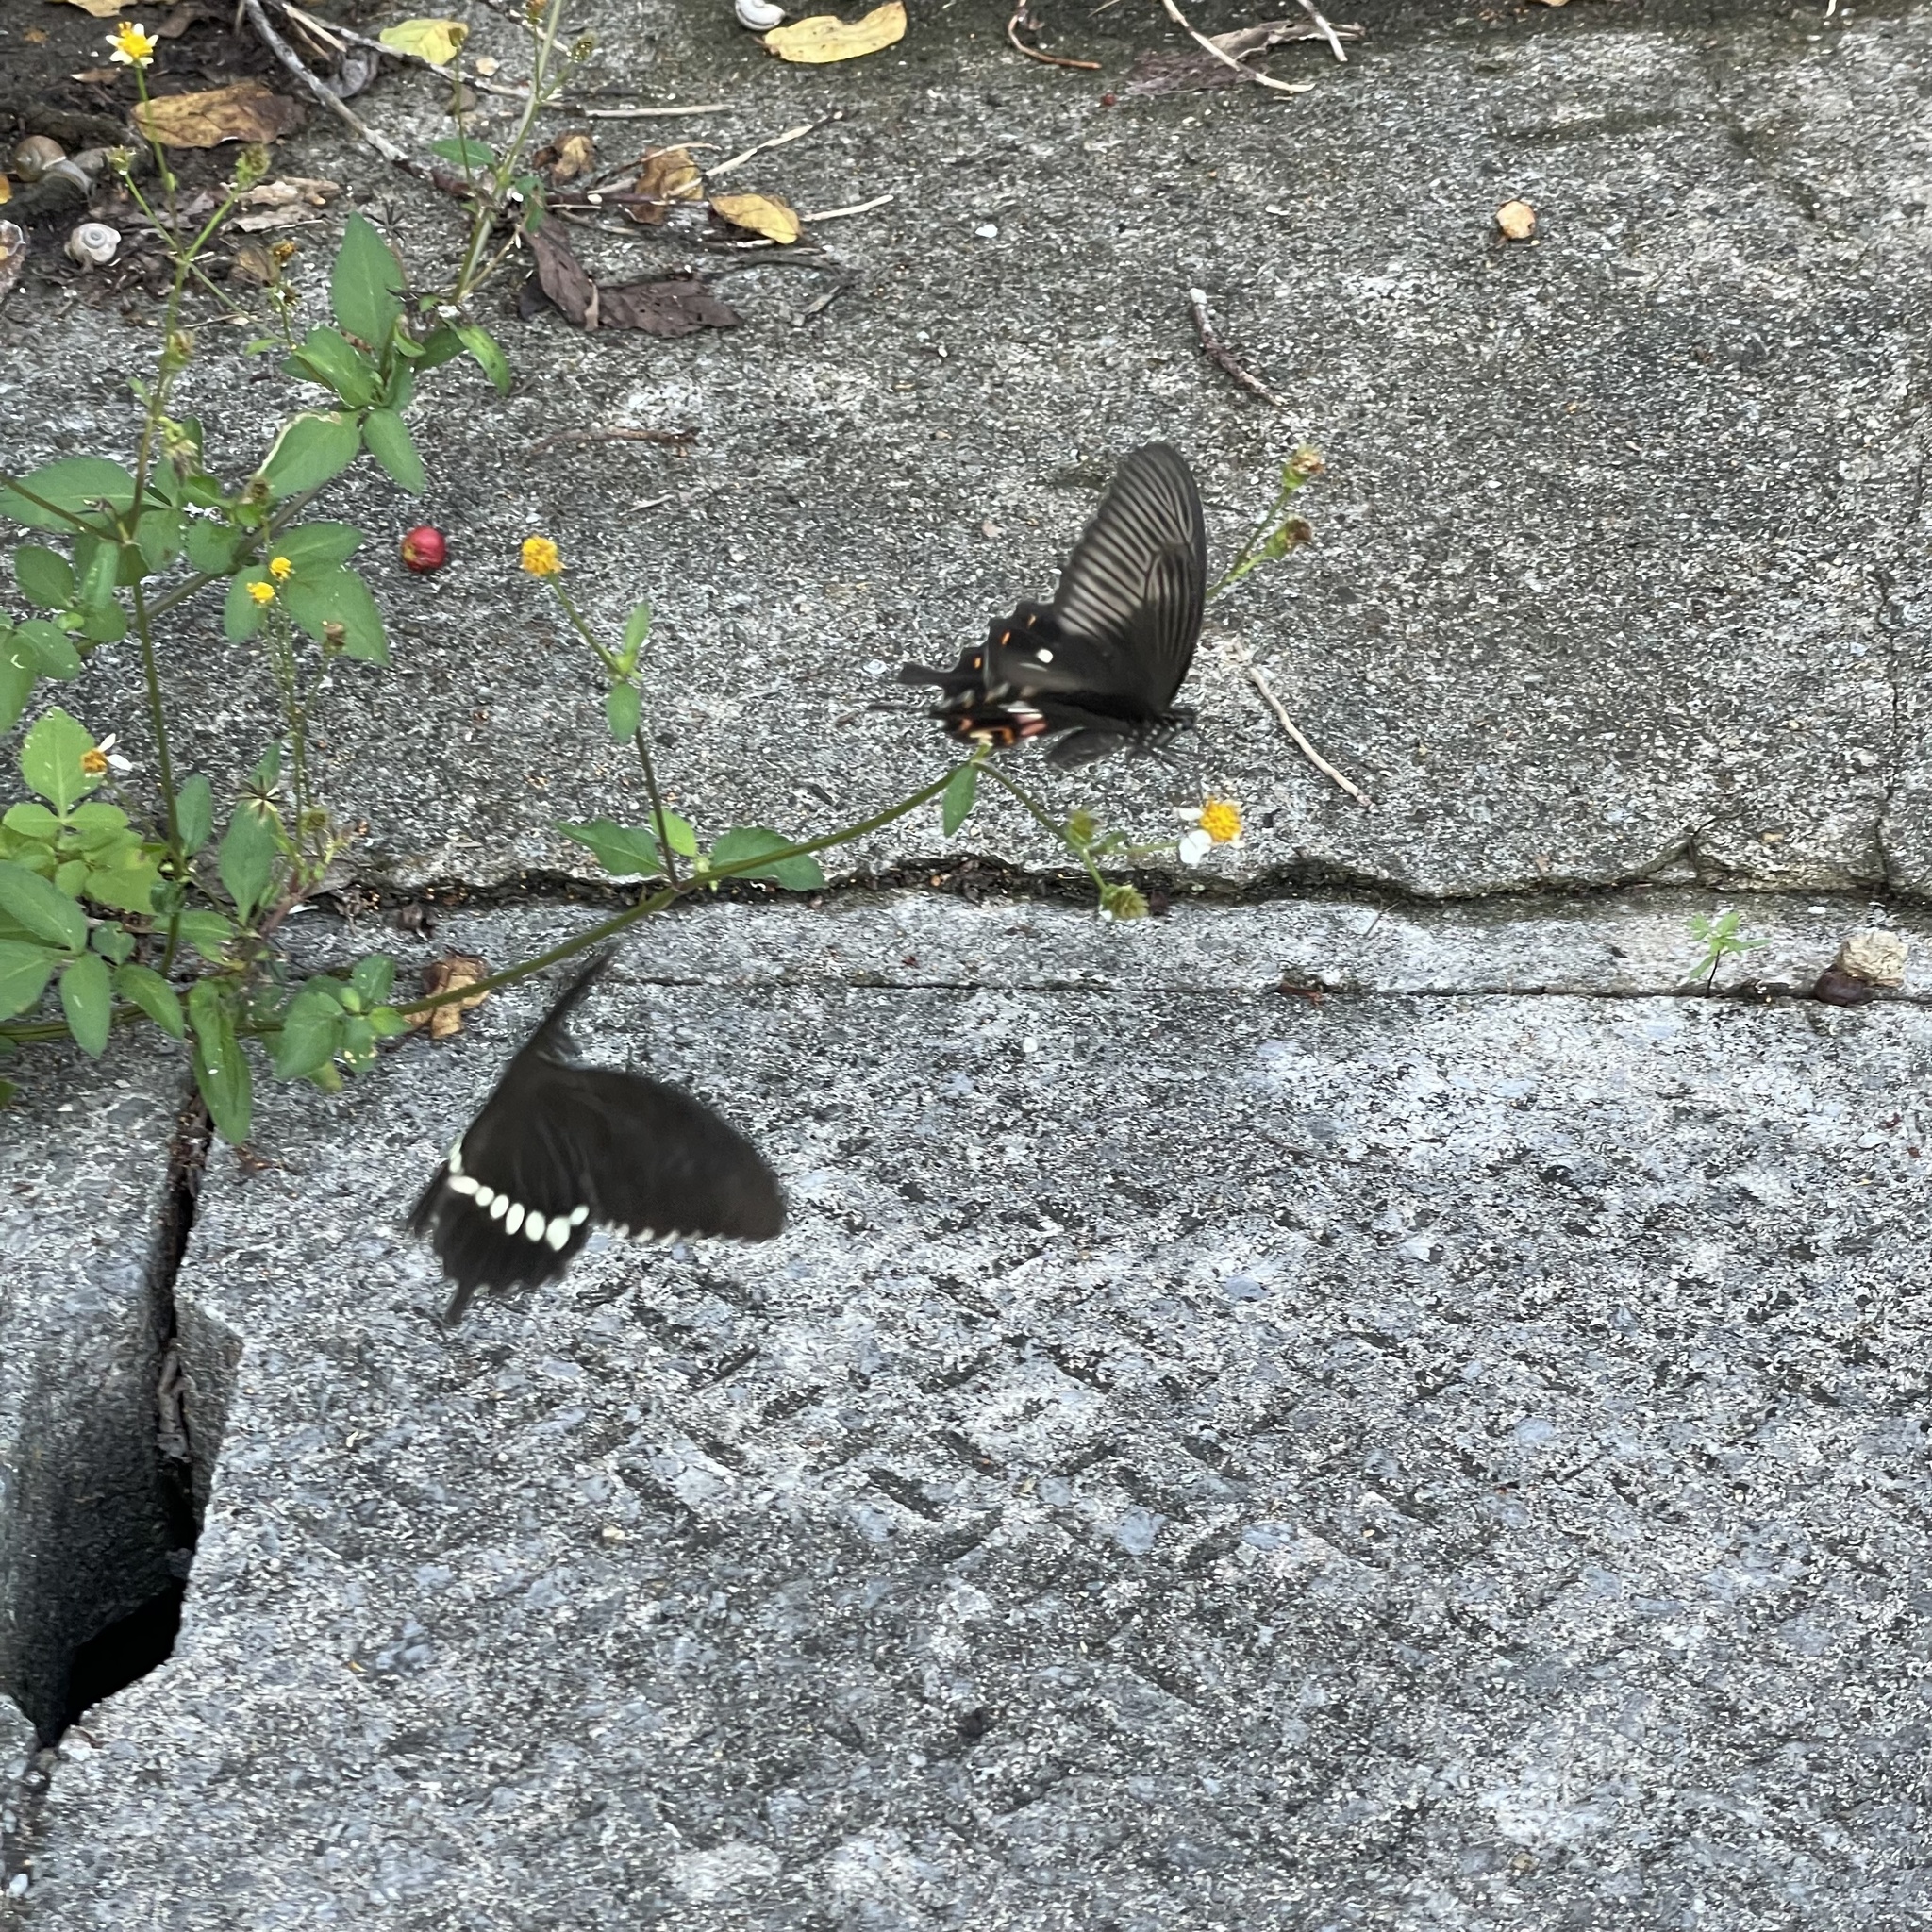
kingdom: Animalia
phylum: Arthropoda
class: Insecta
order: Lepidoptera
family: Papilionidae
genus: Papilio
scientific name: Papilio polytes
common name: Common mormon
